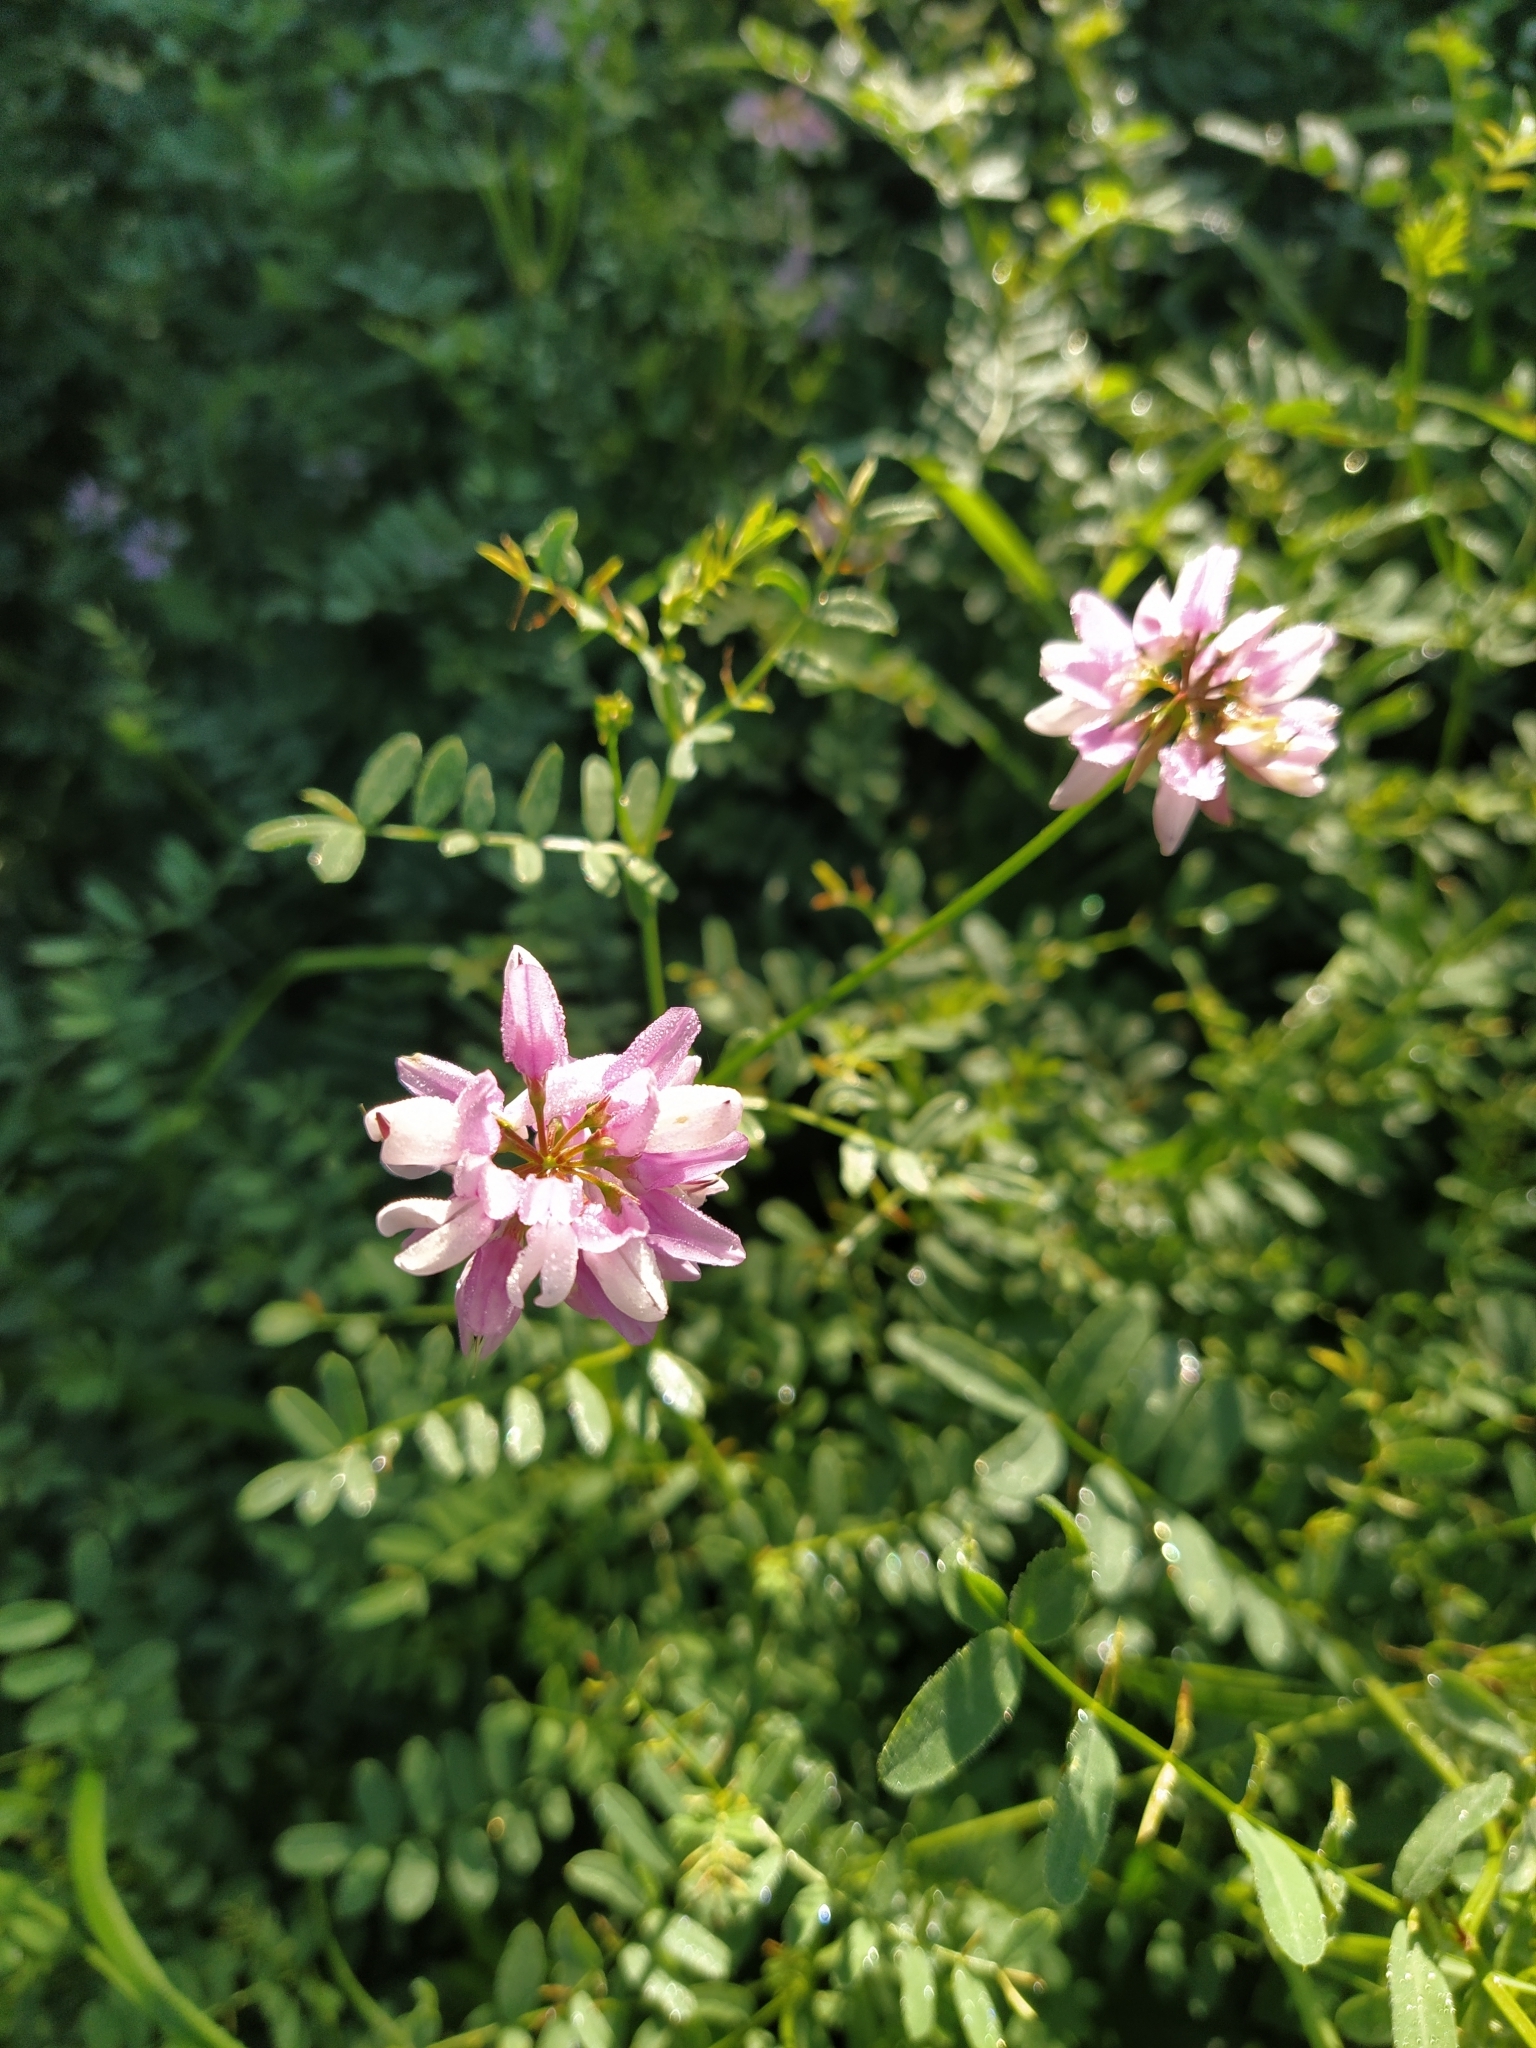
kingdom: Plantae
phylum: Tracheophyta
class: Magnoliopsida
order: Fabales
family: Fabaceae
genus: Coronilla
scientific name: Coronilla varia
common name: Crownvetch
